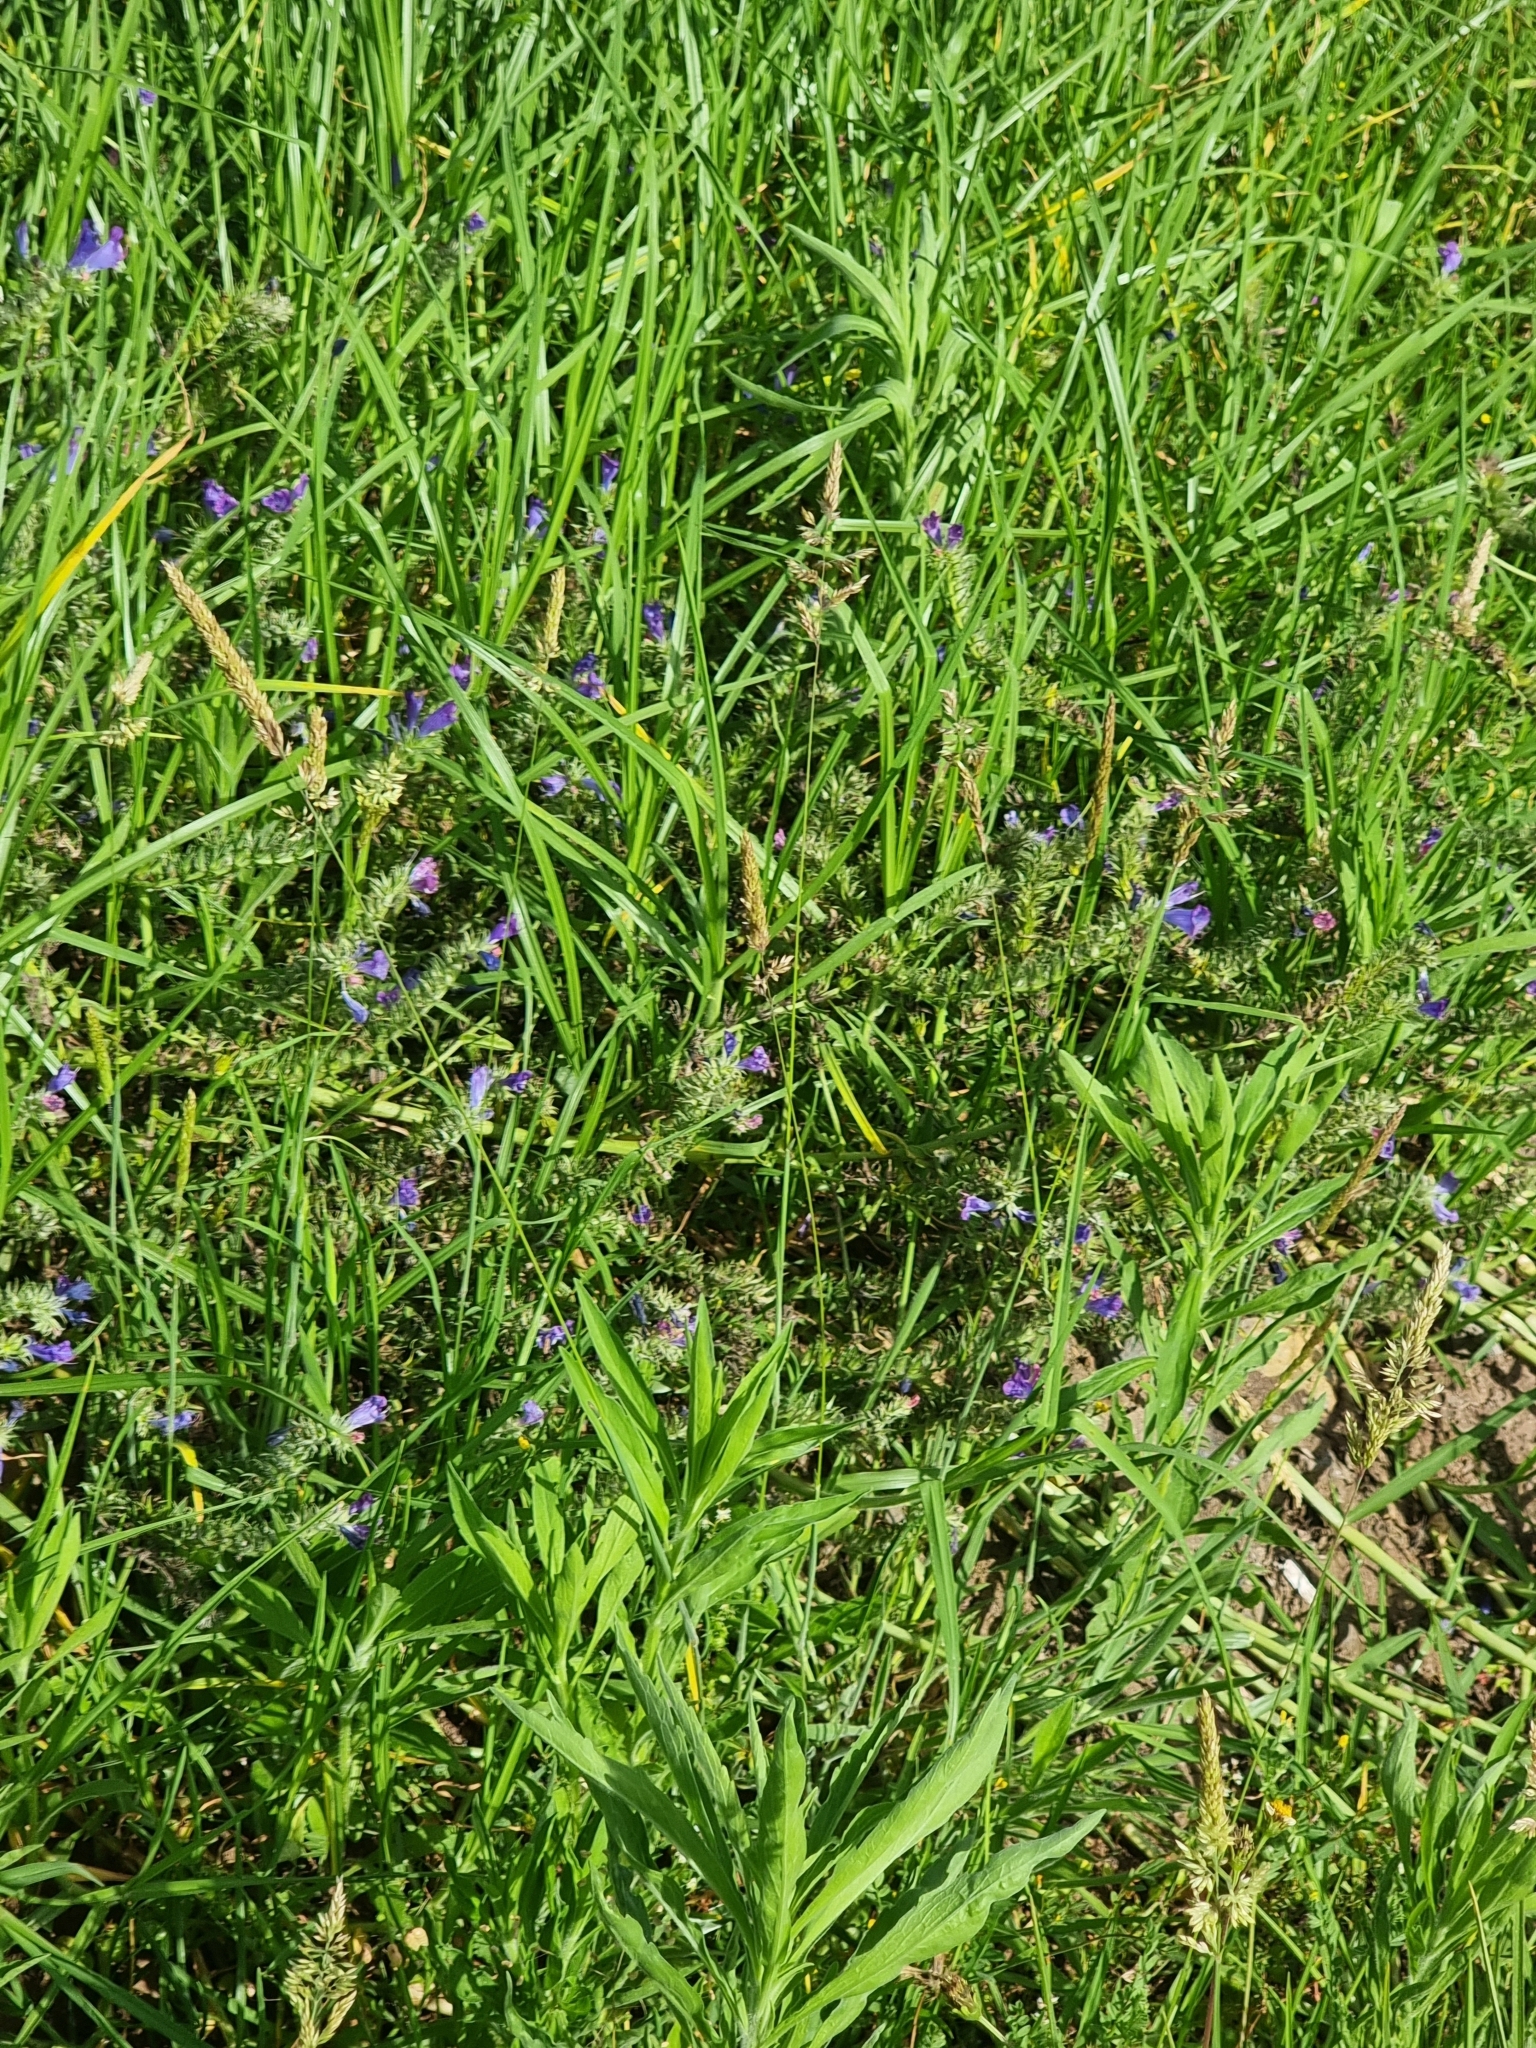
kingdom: Plantae
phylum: Tracheophyta
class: Magnoliopsida
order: Boraginales
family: Boraginaceae
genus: Echium
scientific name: Echium plantagineum
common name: Purple viper's-bugloss
